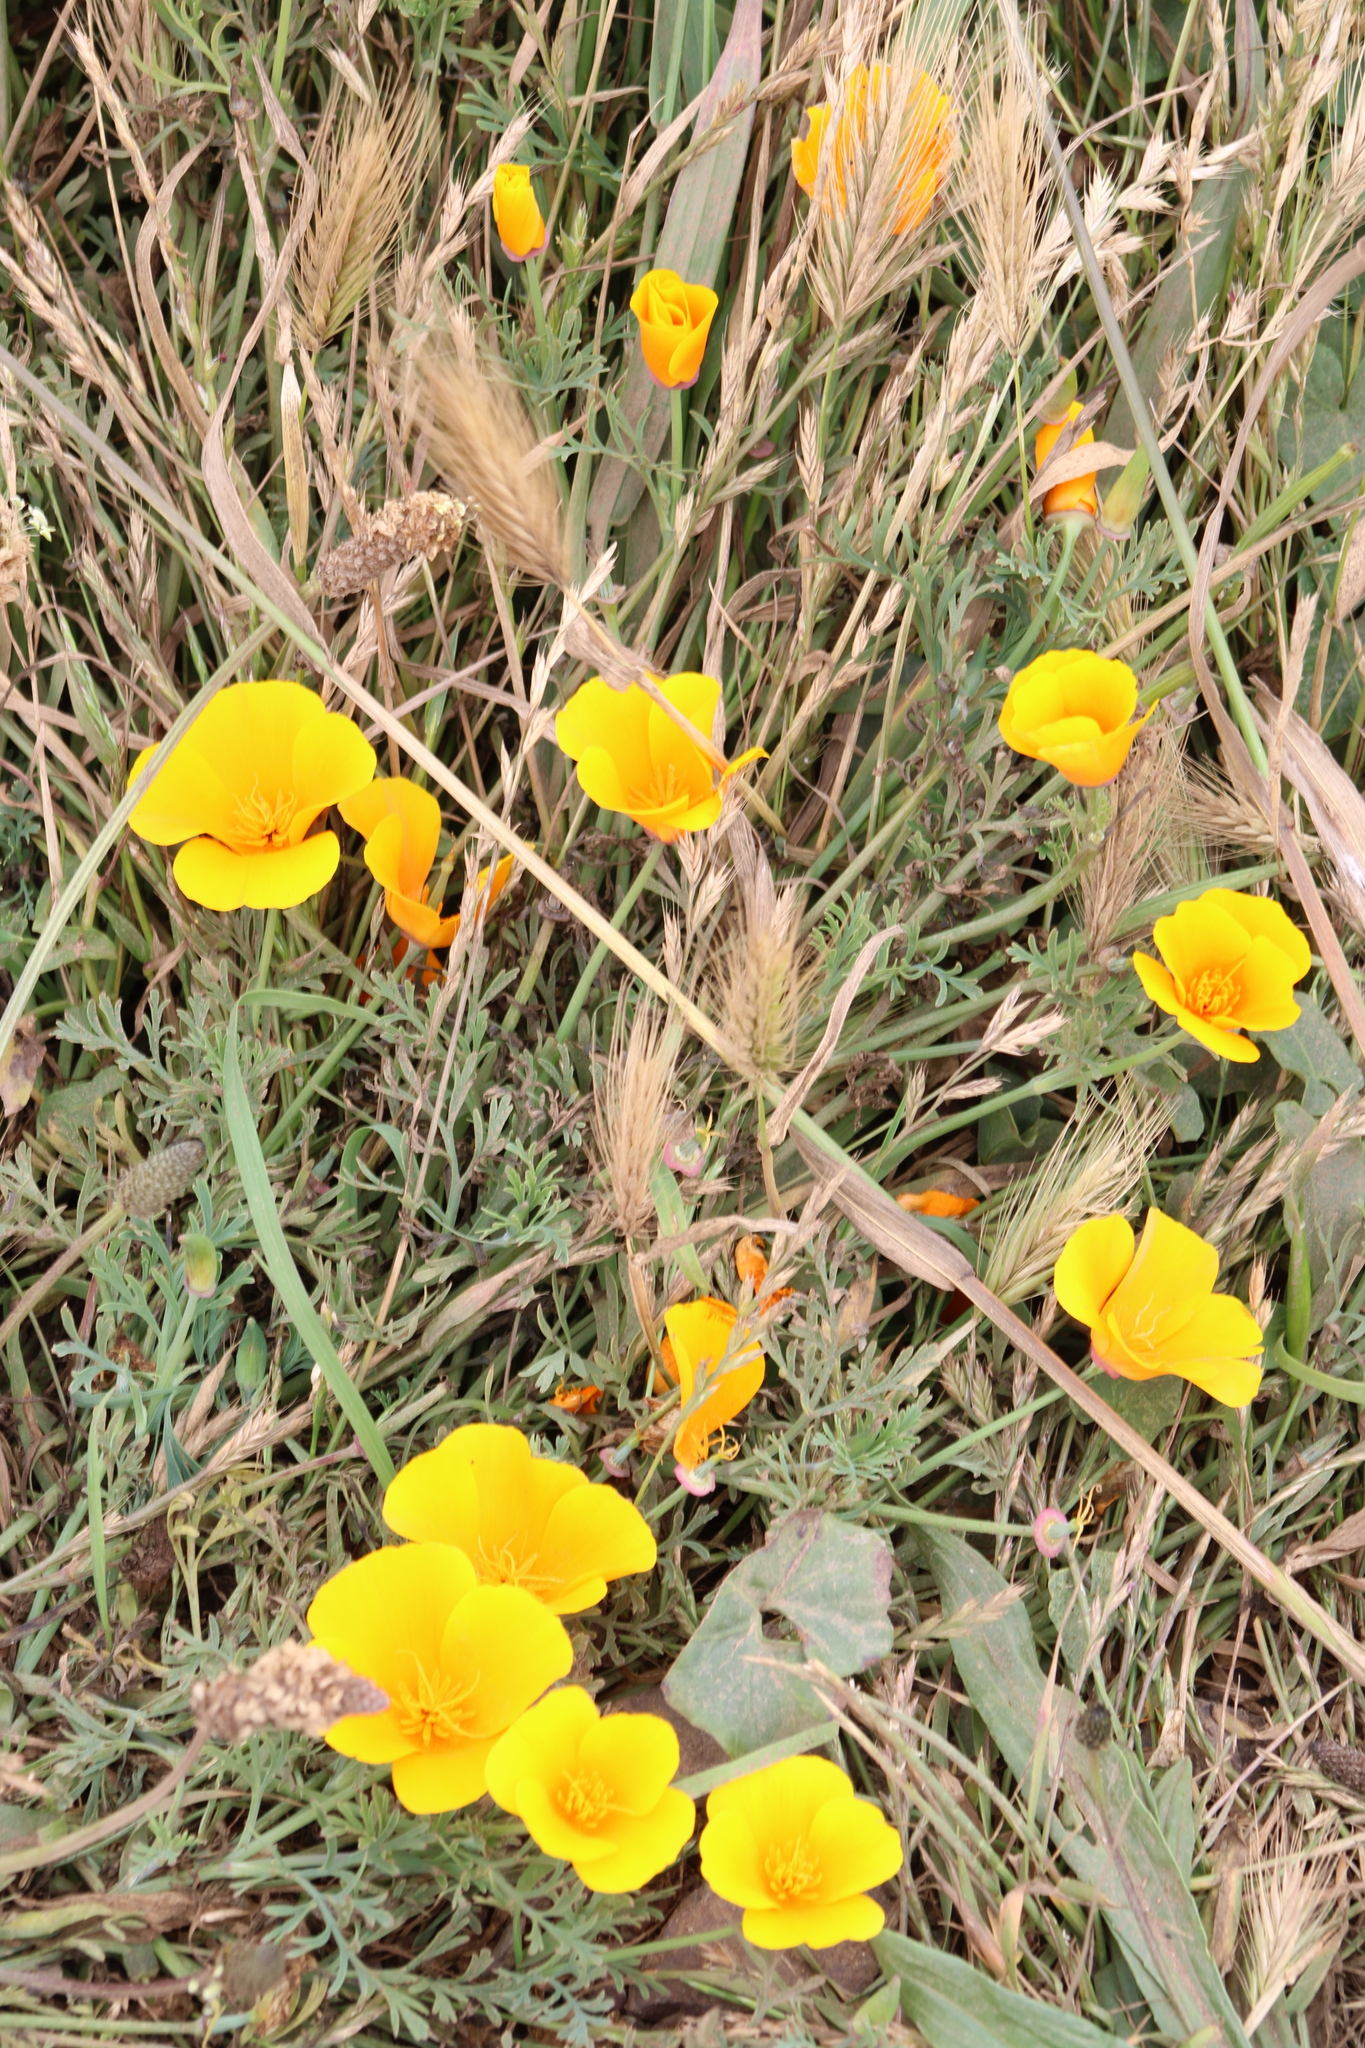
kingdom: Plantae
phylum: Tracheophyta
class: Magnoliopsida
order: Ranunculales
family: Papaveraceae
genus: Eschscholzia
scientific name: Eschscholzia californica
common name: California poppy
